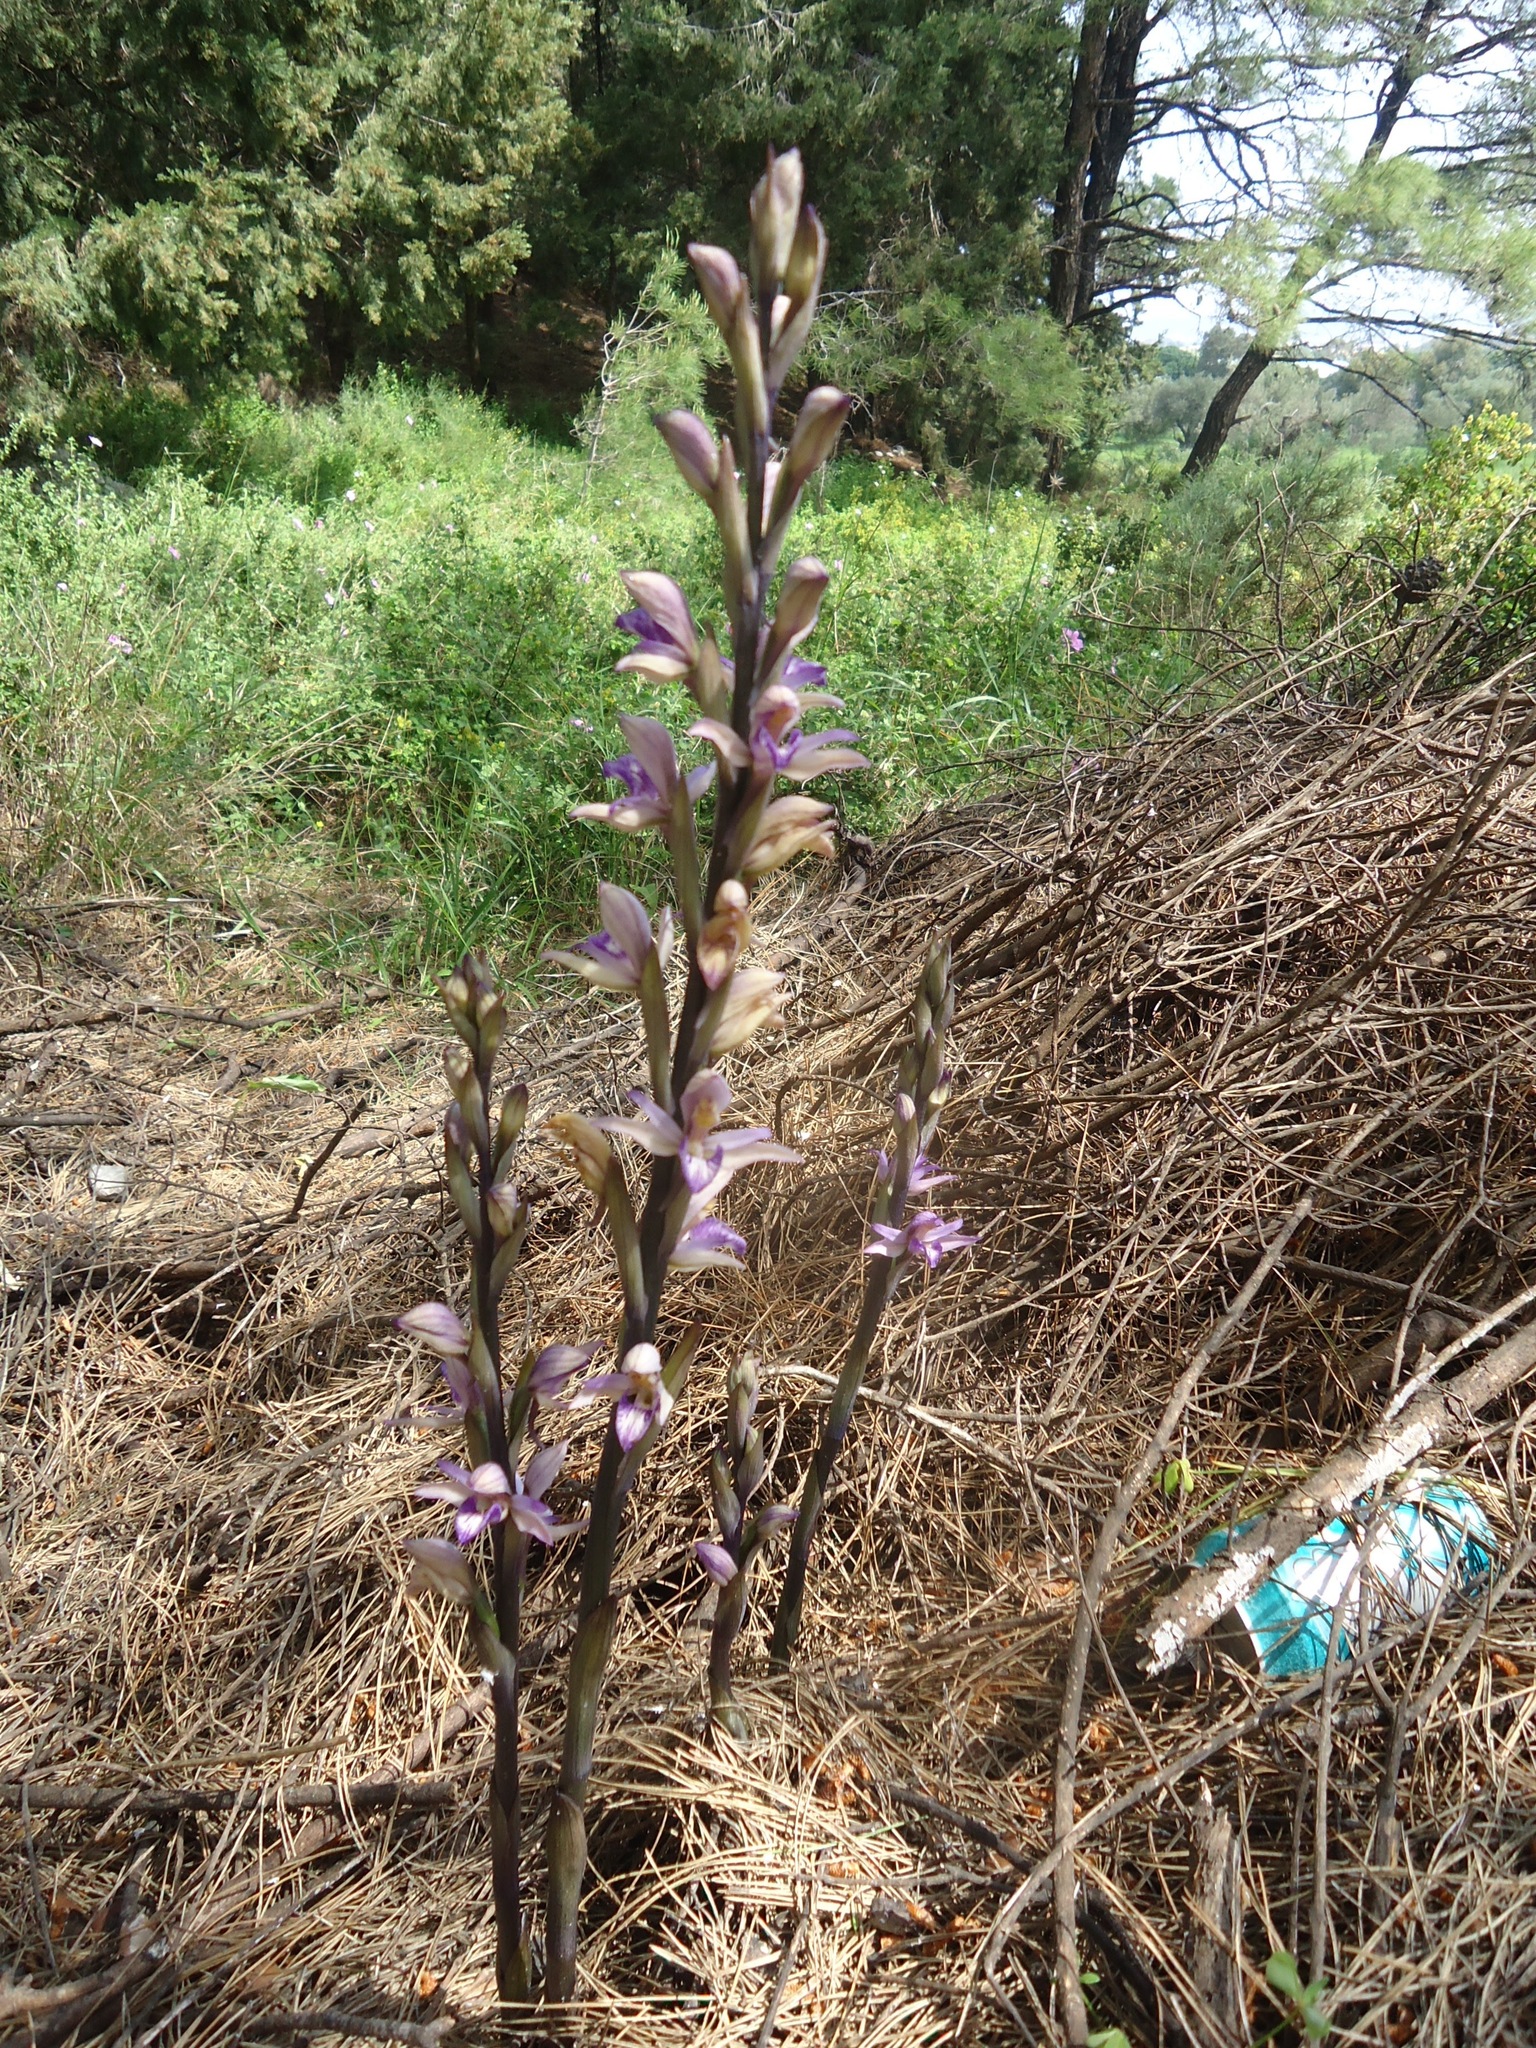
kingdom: Plantae
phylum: Tracheophyta
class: Liliopsida
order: Asparagales
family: Orchidaceae
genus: Limodorum
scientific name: Limodorum abortivum
